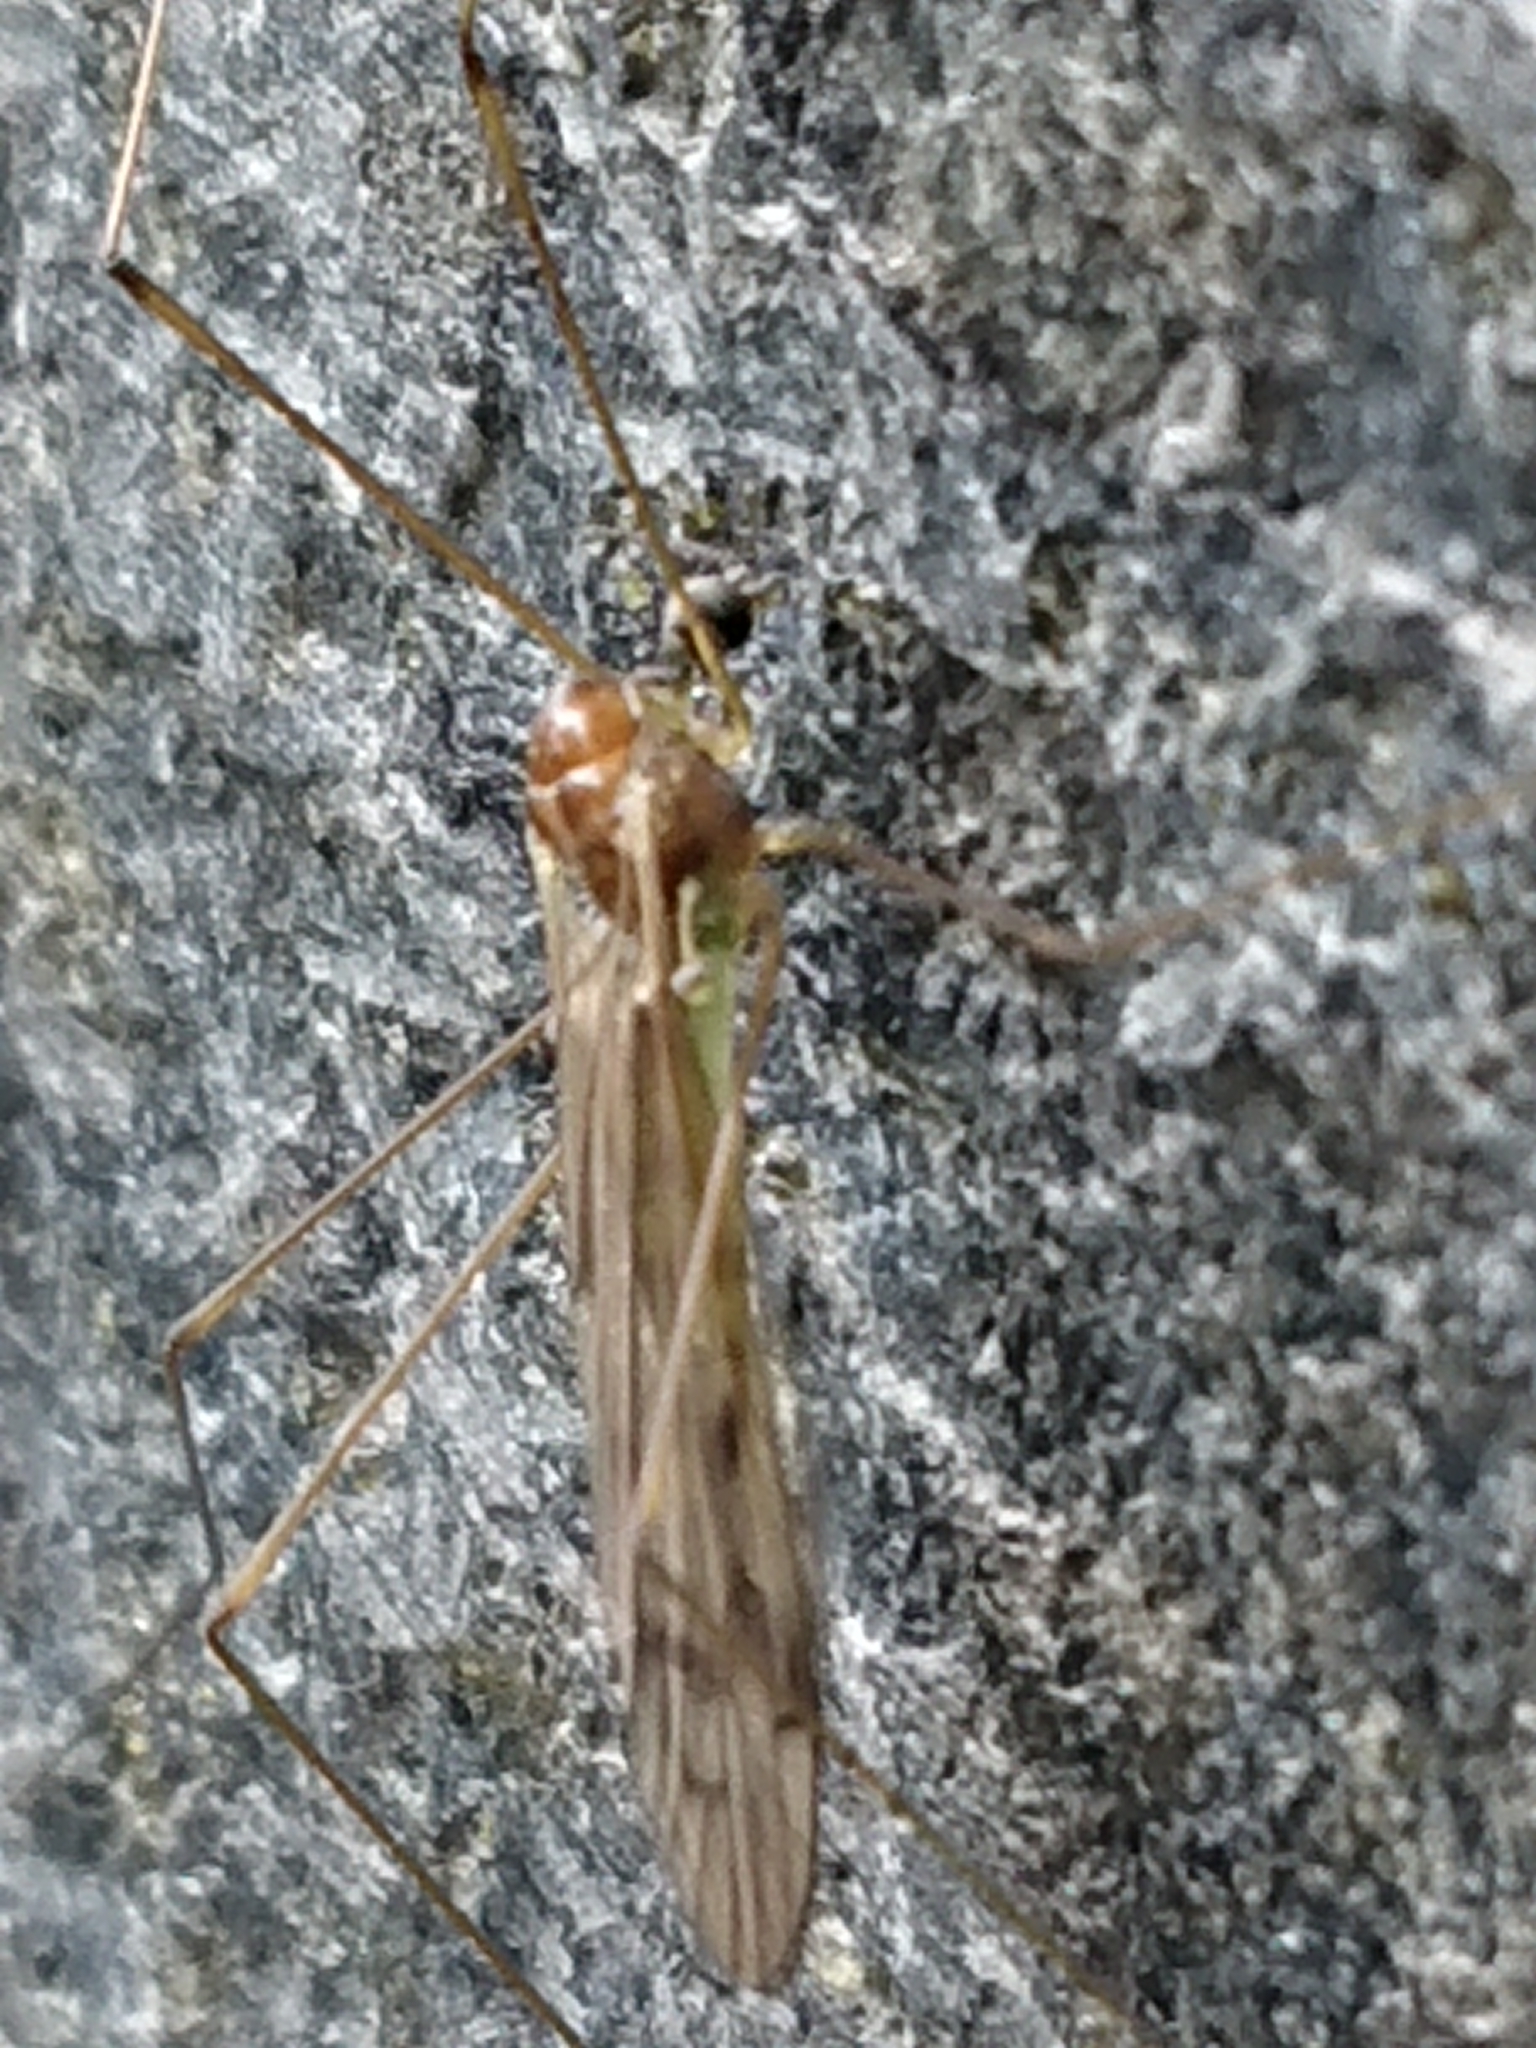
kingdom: Animalia
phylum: Arthropoda
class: Insecta
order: Diptera
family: Limoniidae
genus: Dicranomyia
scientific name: Dicranomyia crassipes
